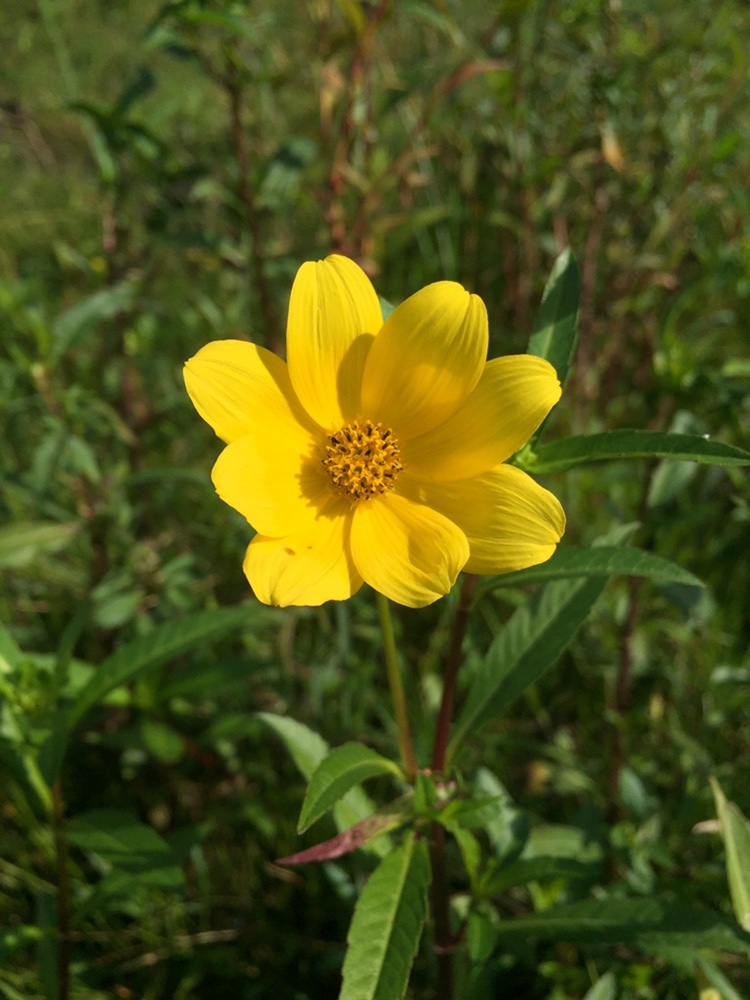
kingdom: Plantae
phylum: Tracheophyta
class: Magnoliopsida
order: Asterales
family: Asteraceae
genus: Bidens
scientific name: Bidens laevis
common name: Larger bur-marigold
